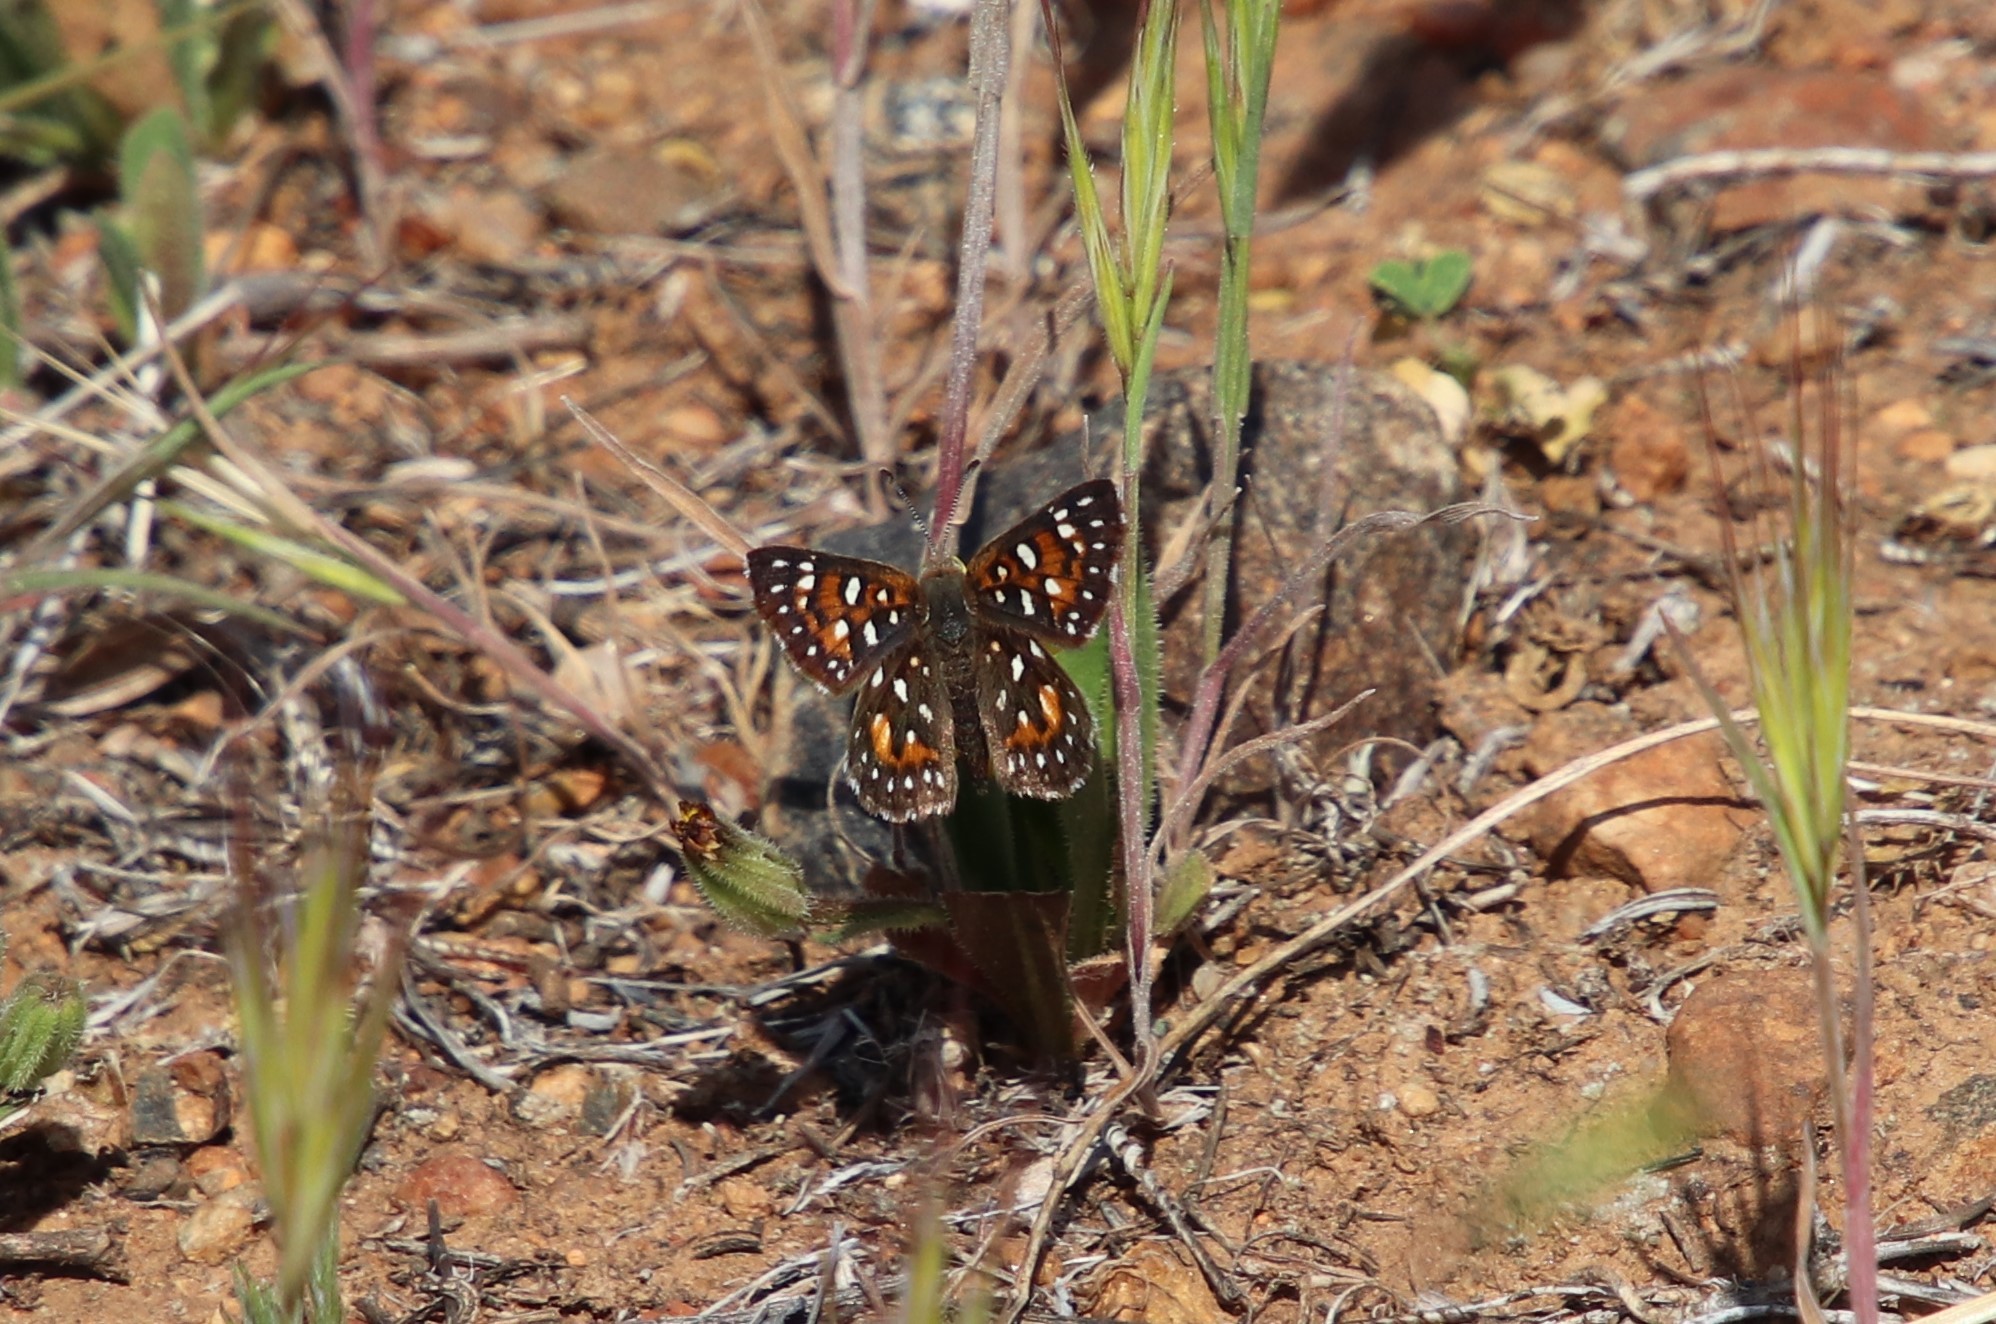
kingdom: Animalia
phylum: Arthropoda
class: Insecta
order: Lepidoptera
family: Riodinidae
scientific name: Riodinidae
